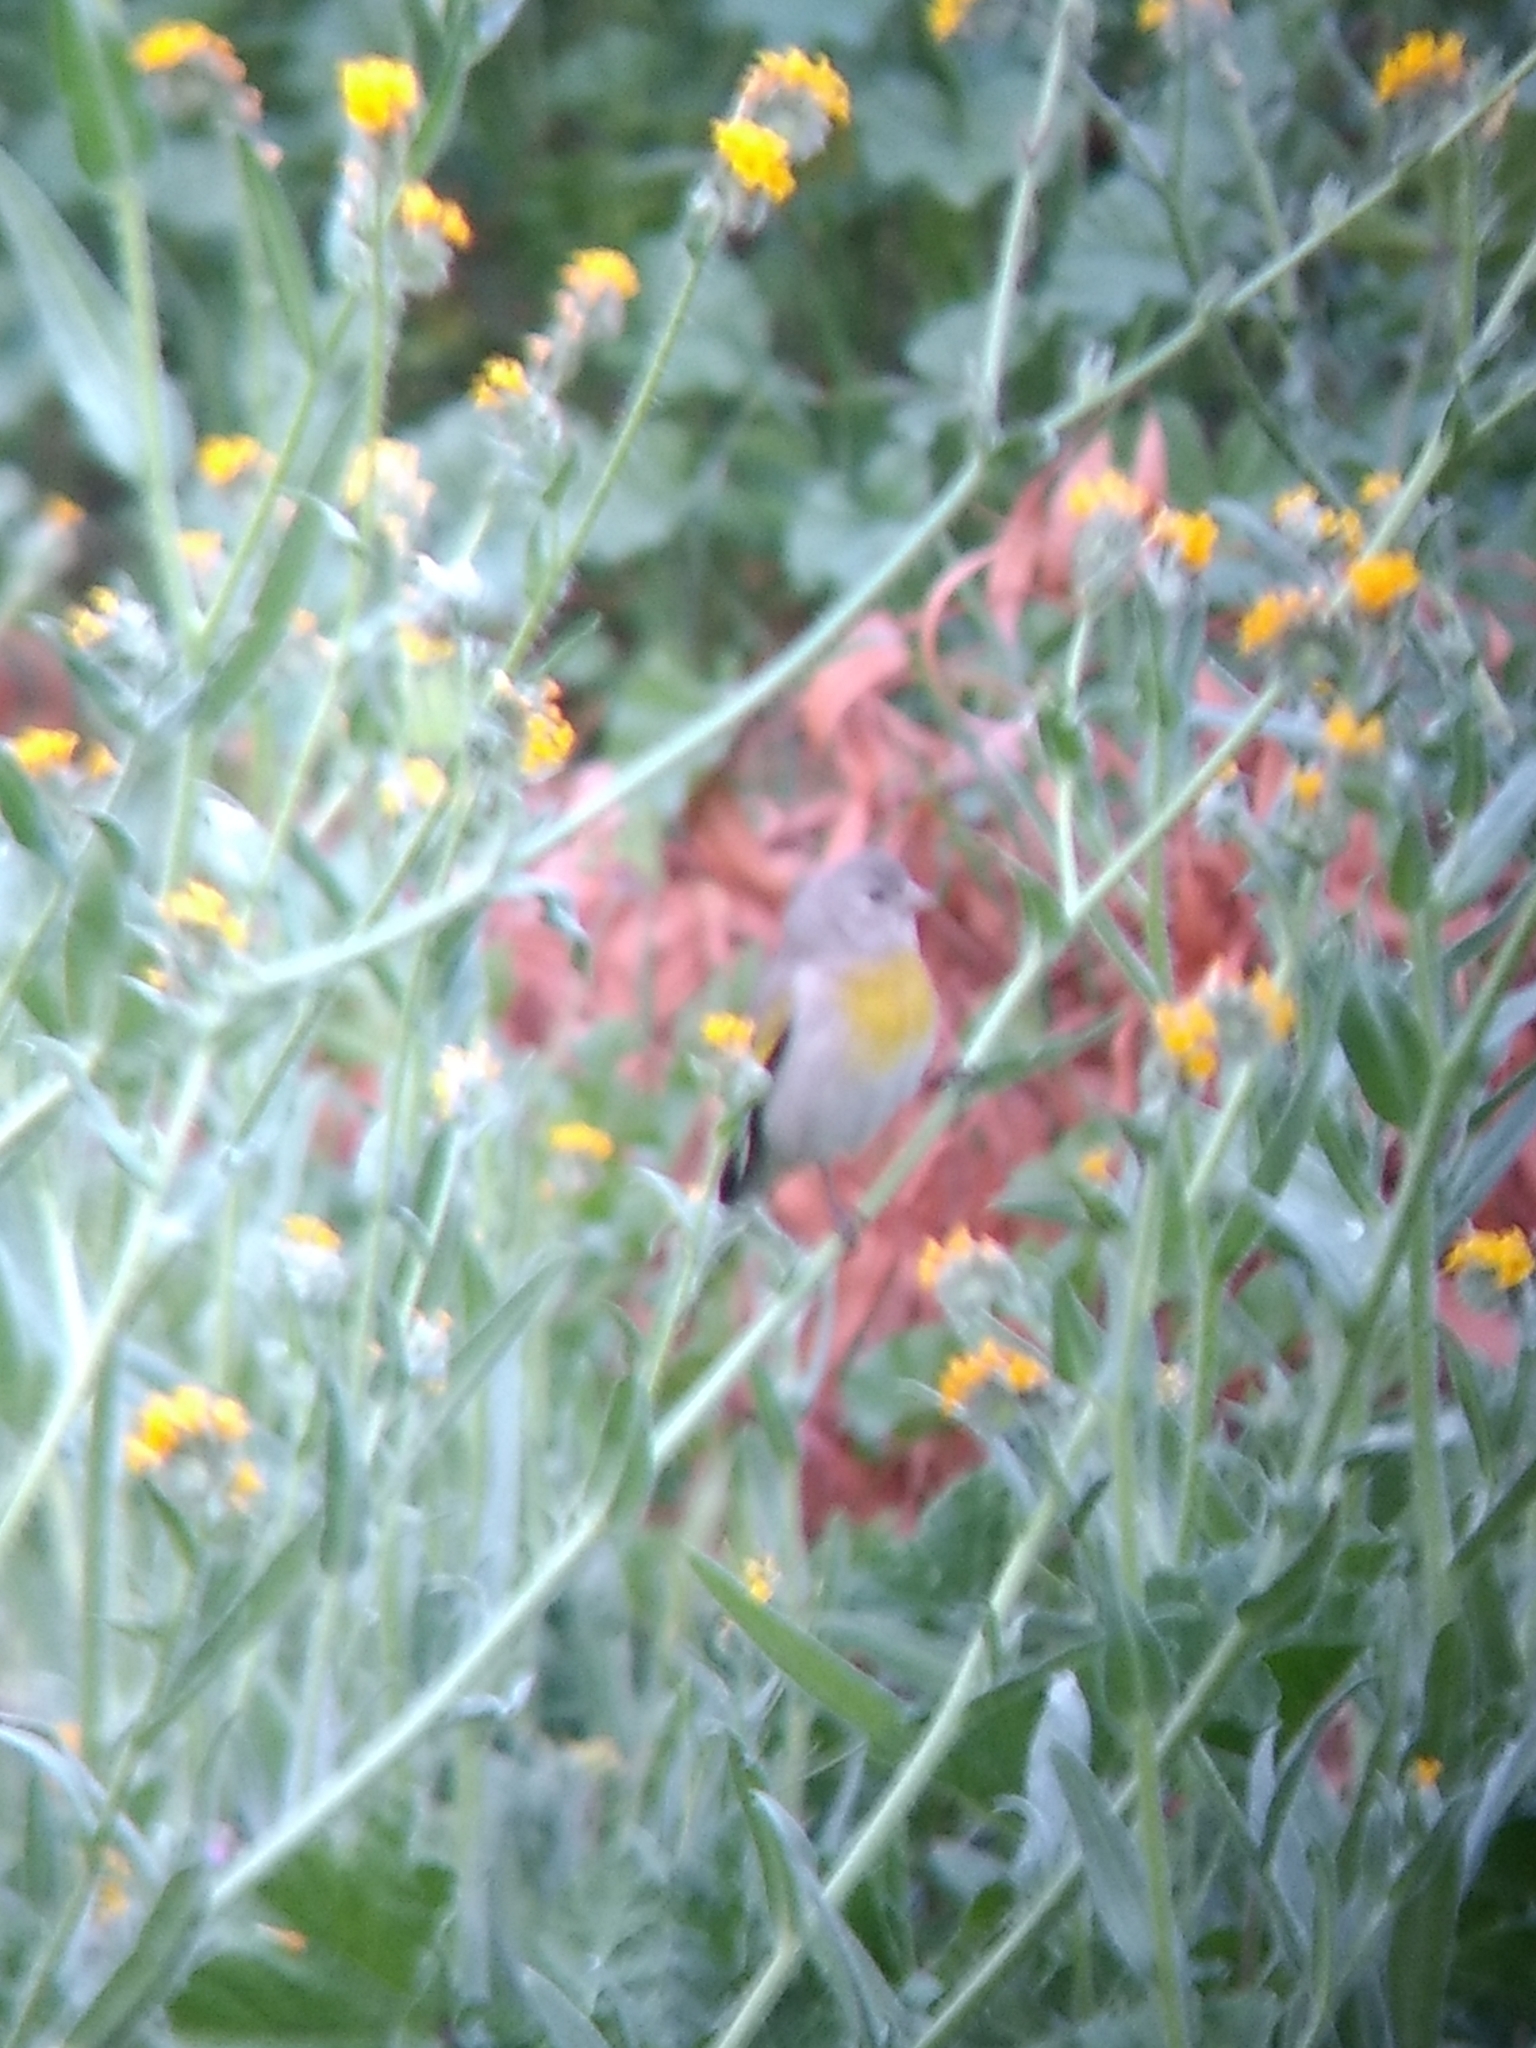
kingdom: Animalia
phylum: Chordata
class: Aves
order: Passeriformes
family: Fringillidae
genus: Spinus
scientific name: Spinus lawrencei
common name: Lawrence's goldfinch
